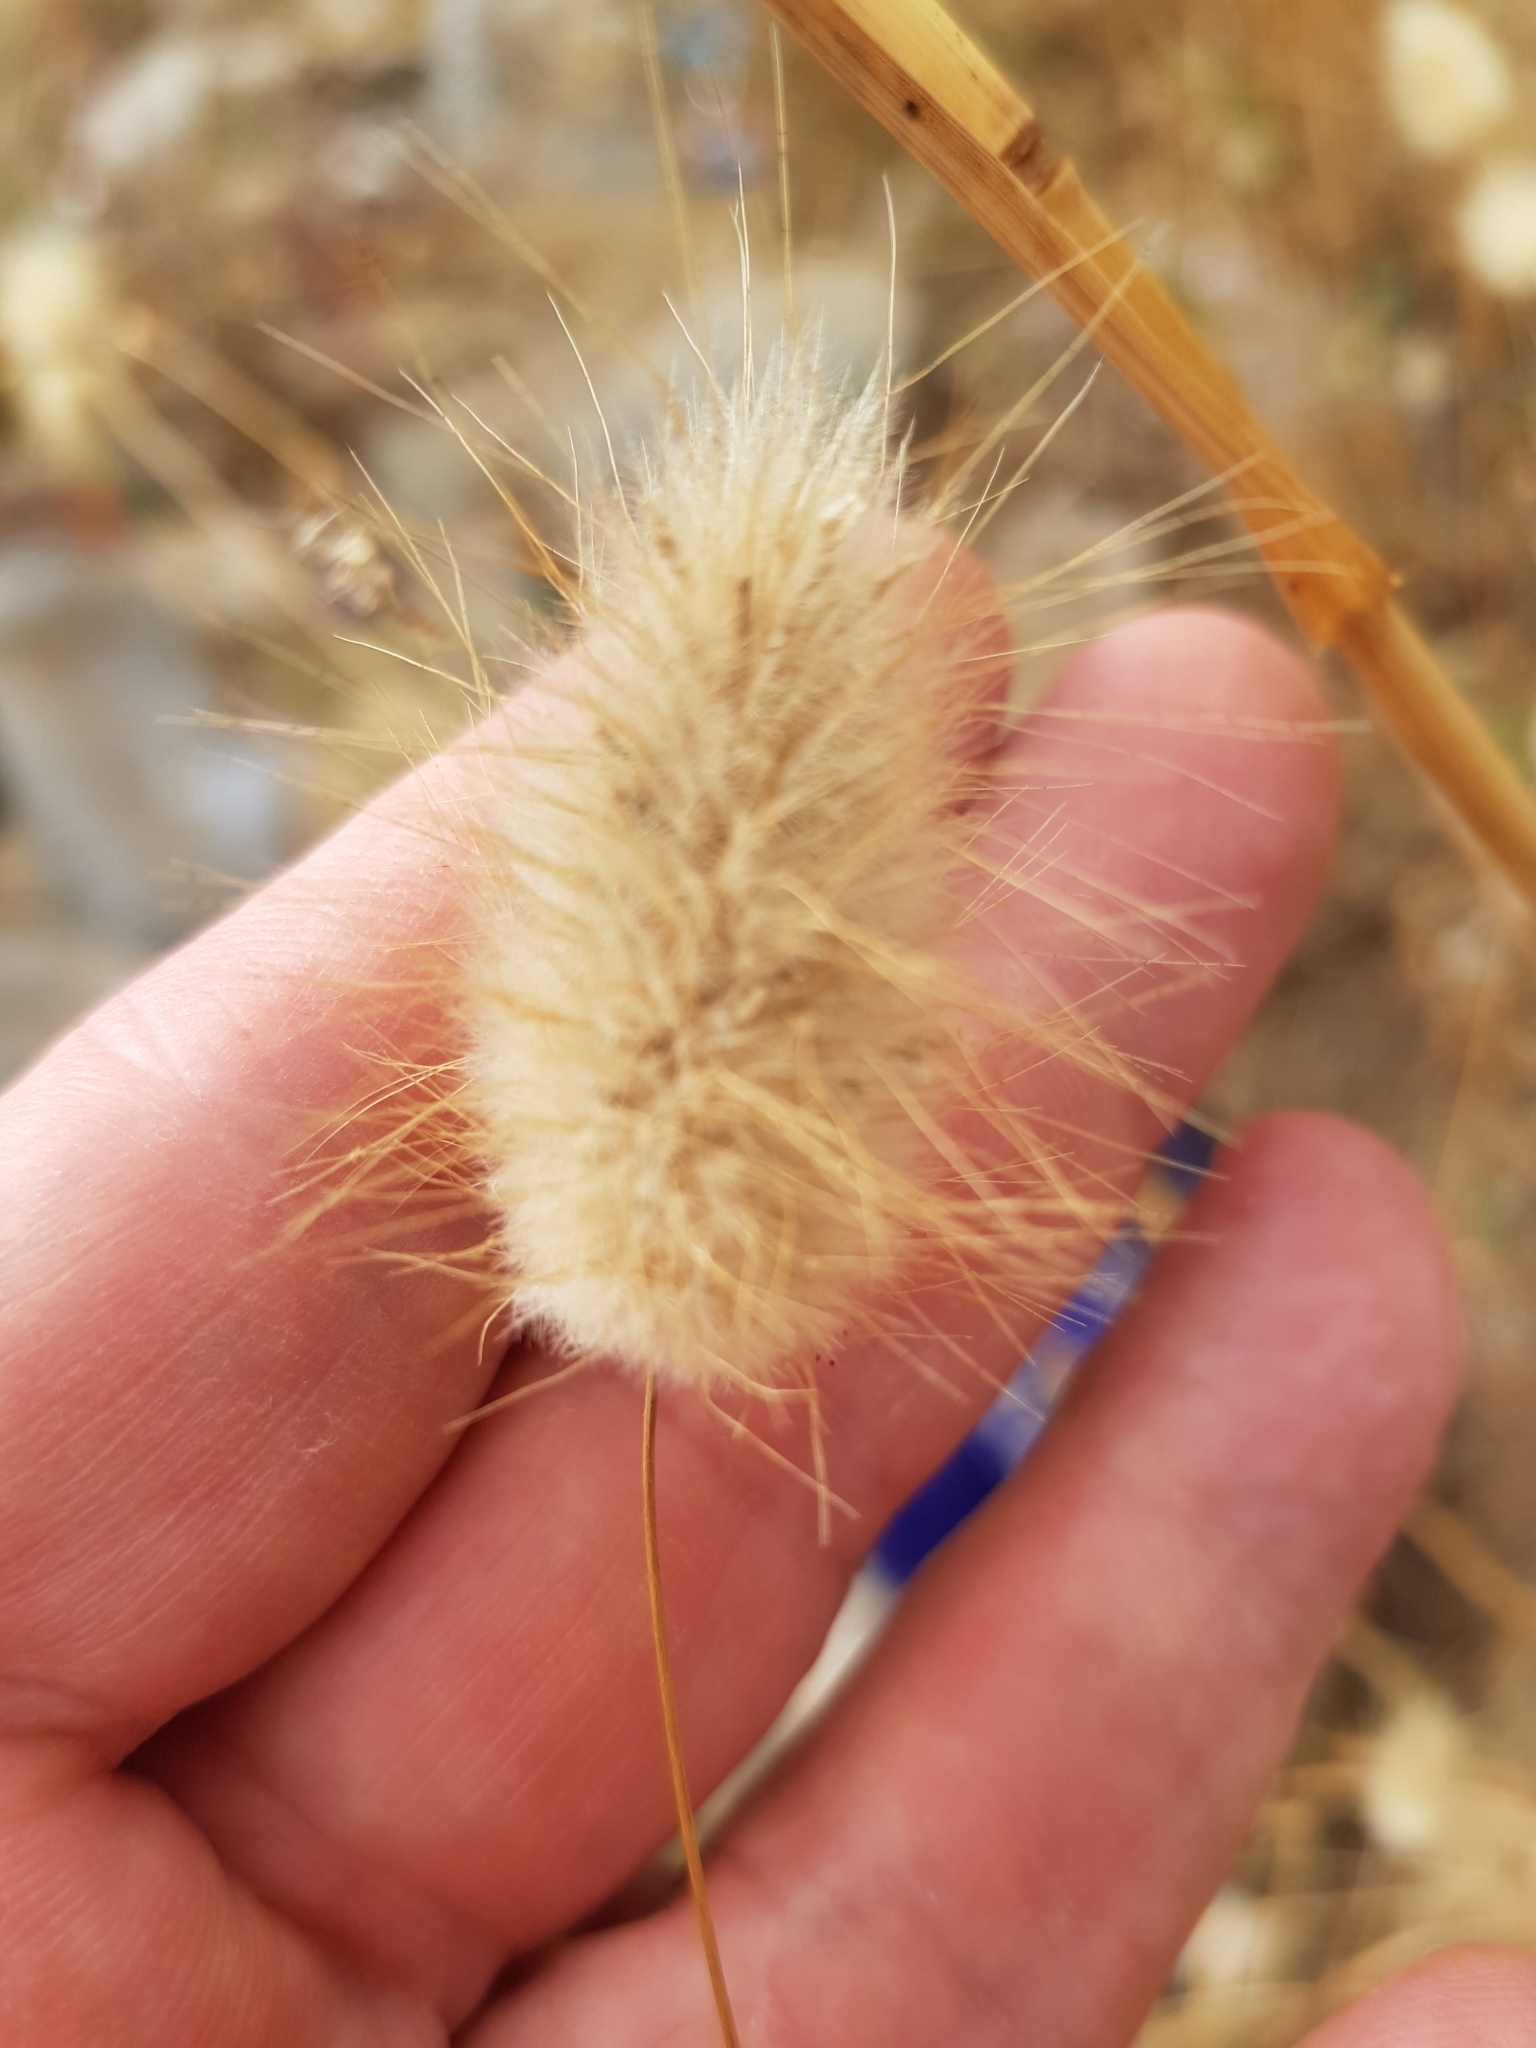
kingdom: Plantae
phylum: Tracheophyta
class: Liliopsida
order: Poales
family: Poaceae
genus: Lagurus
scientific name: Lagurus ovatus
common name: Hare's-tail
